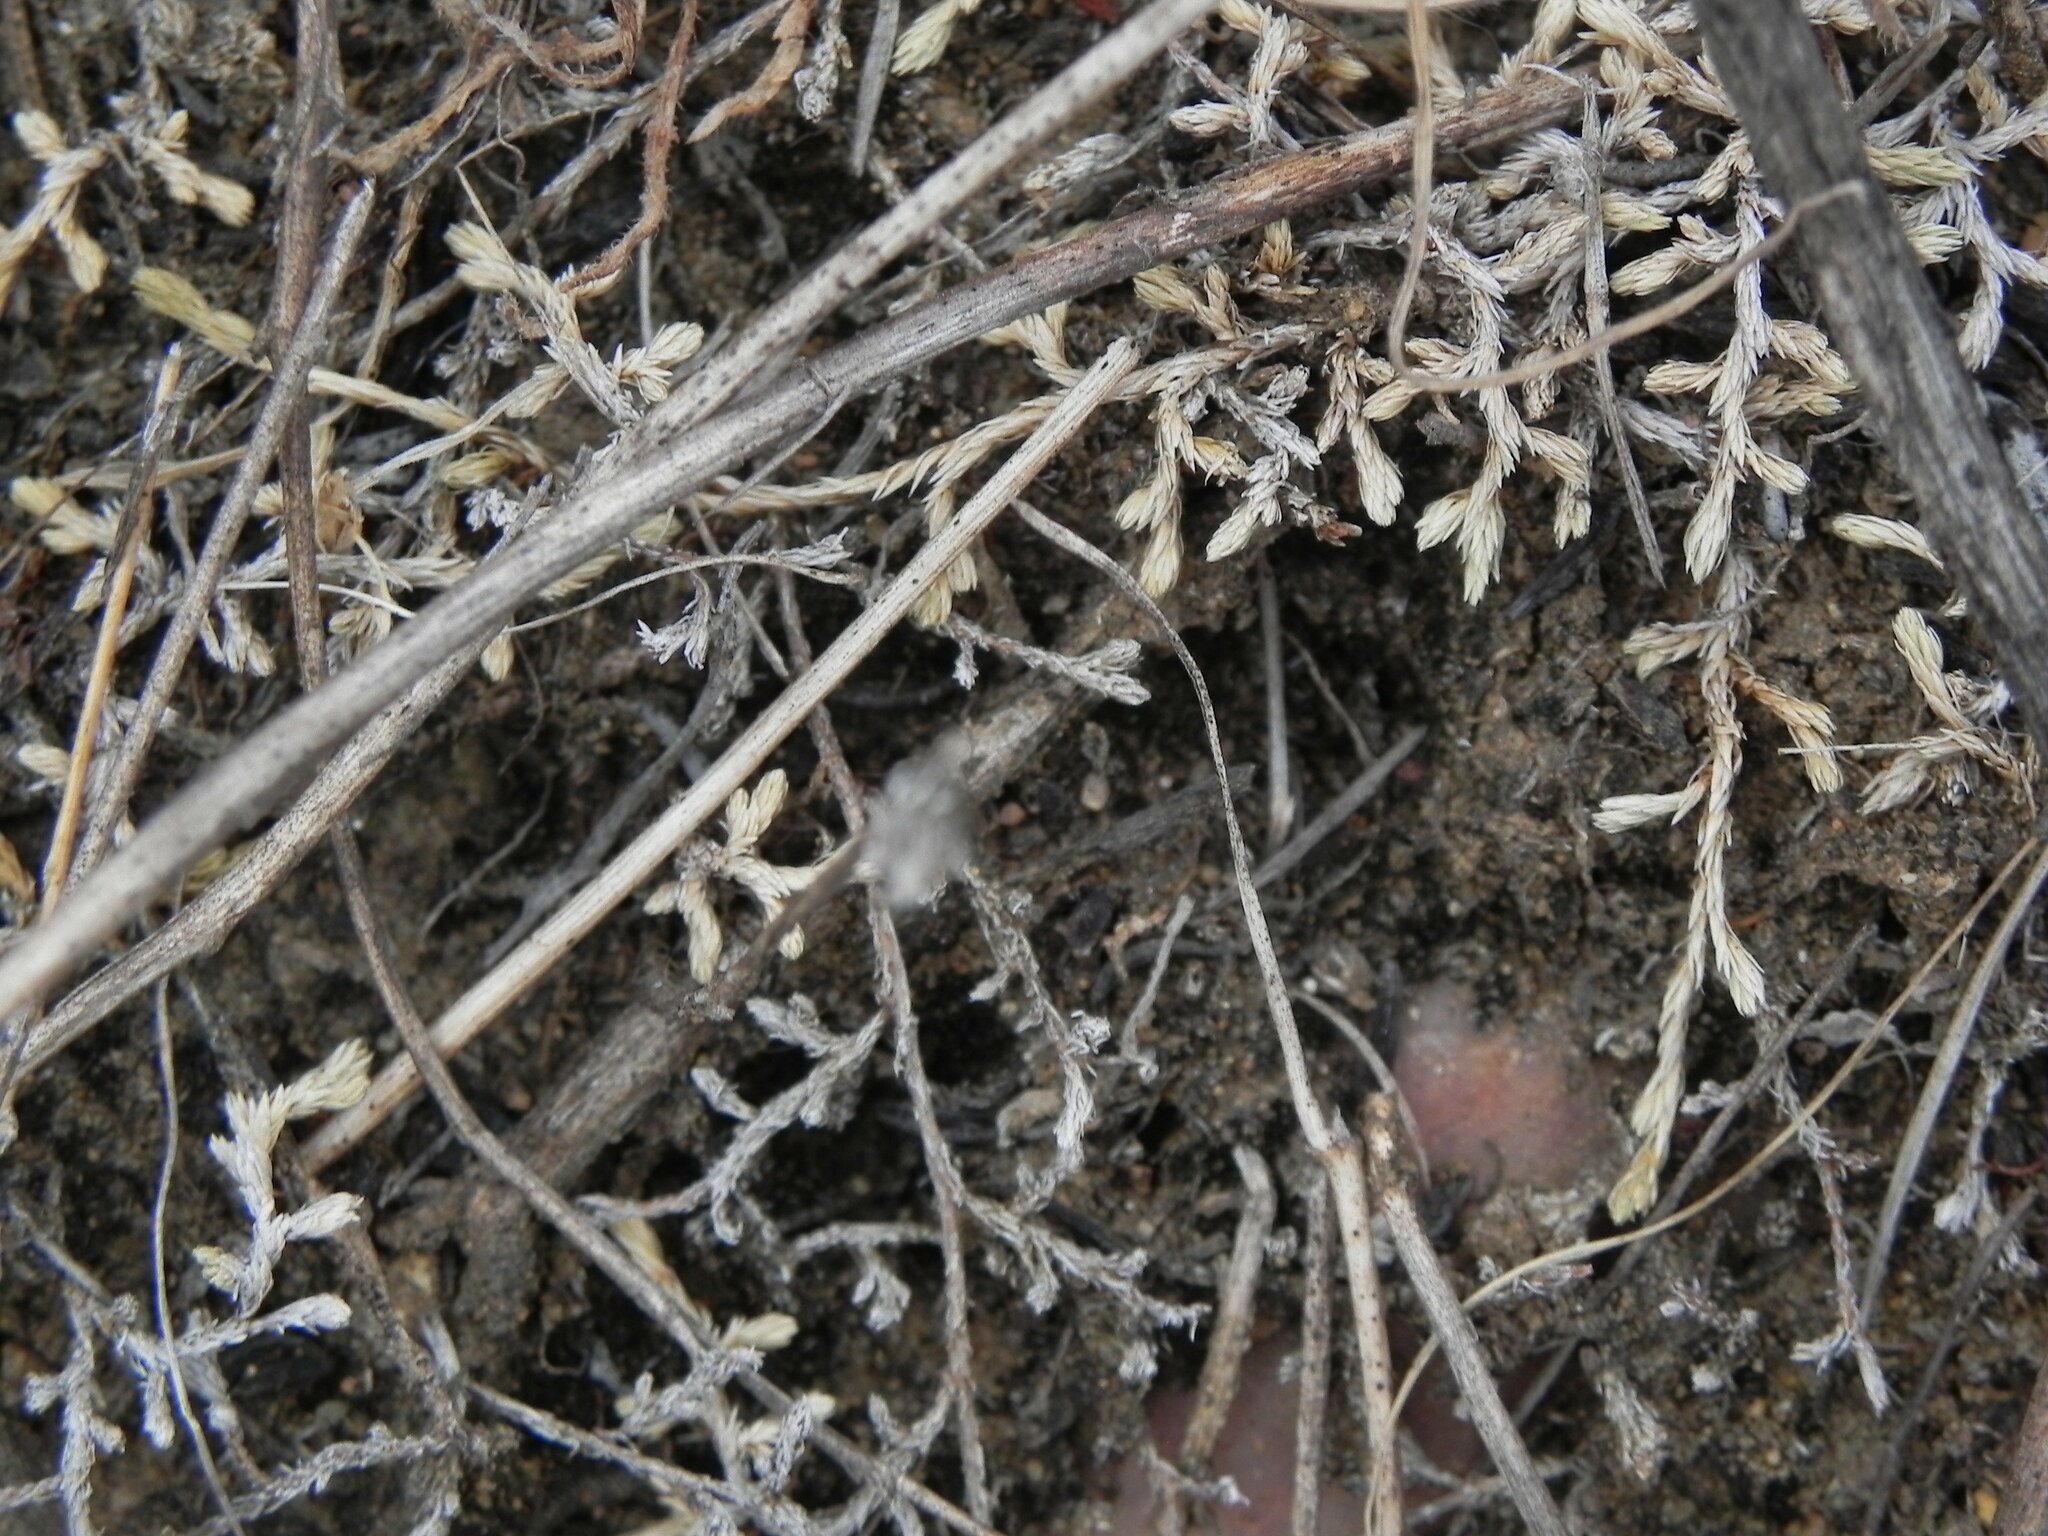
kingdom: Plantae
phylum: Tracheophyta
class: Lycopodiopsida
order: Selaginellales
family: Selaginellaceae
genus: Selaginella
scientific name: Selaginella cinerascens
